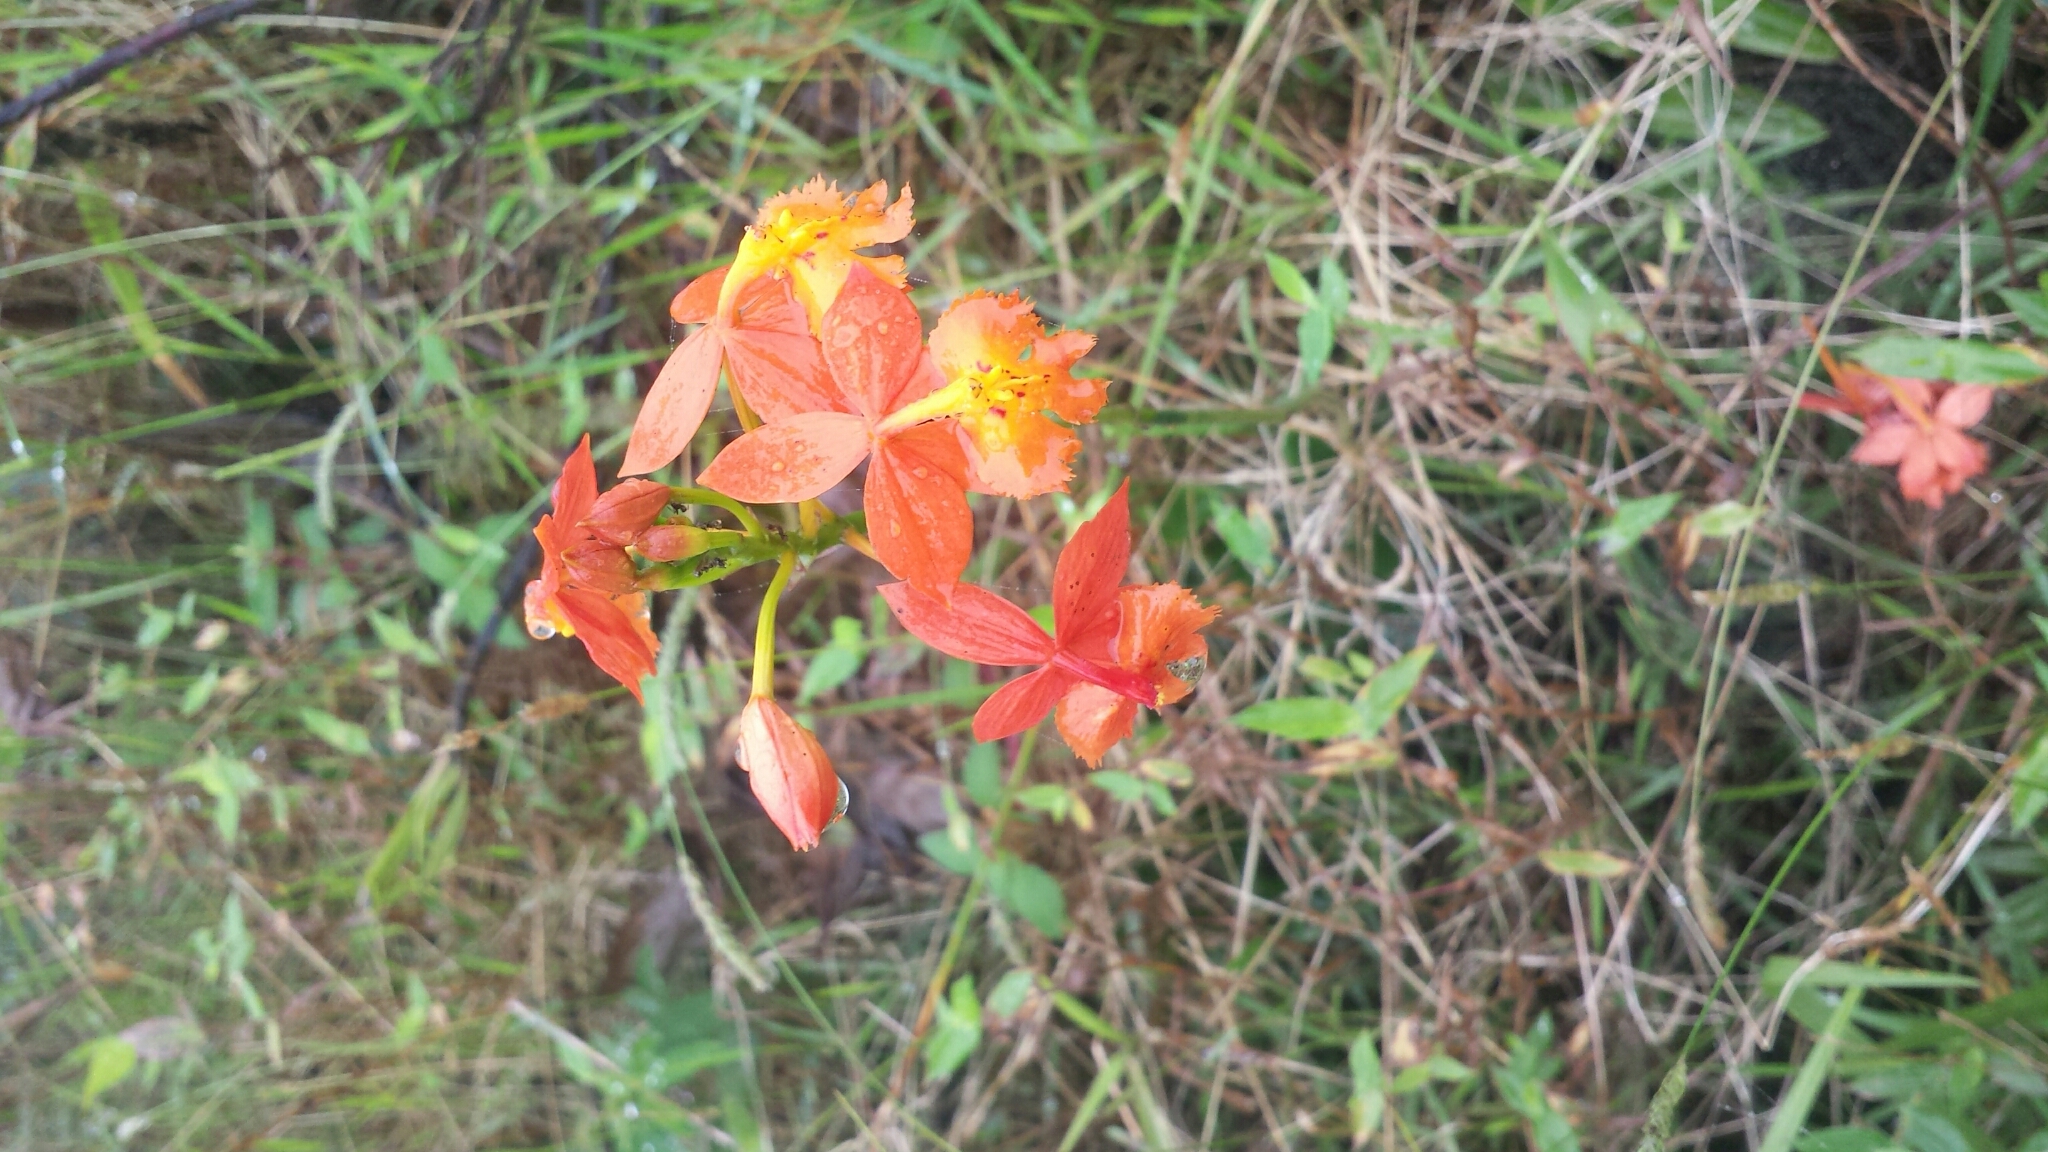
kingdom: Plantae
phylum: Tracheophyta
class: Liliopsida
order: Asparagales
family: Orchidaceae
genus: Epidendrum
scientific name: Epidendrum radicans
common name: Fire star orchid
